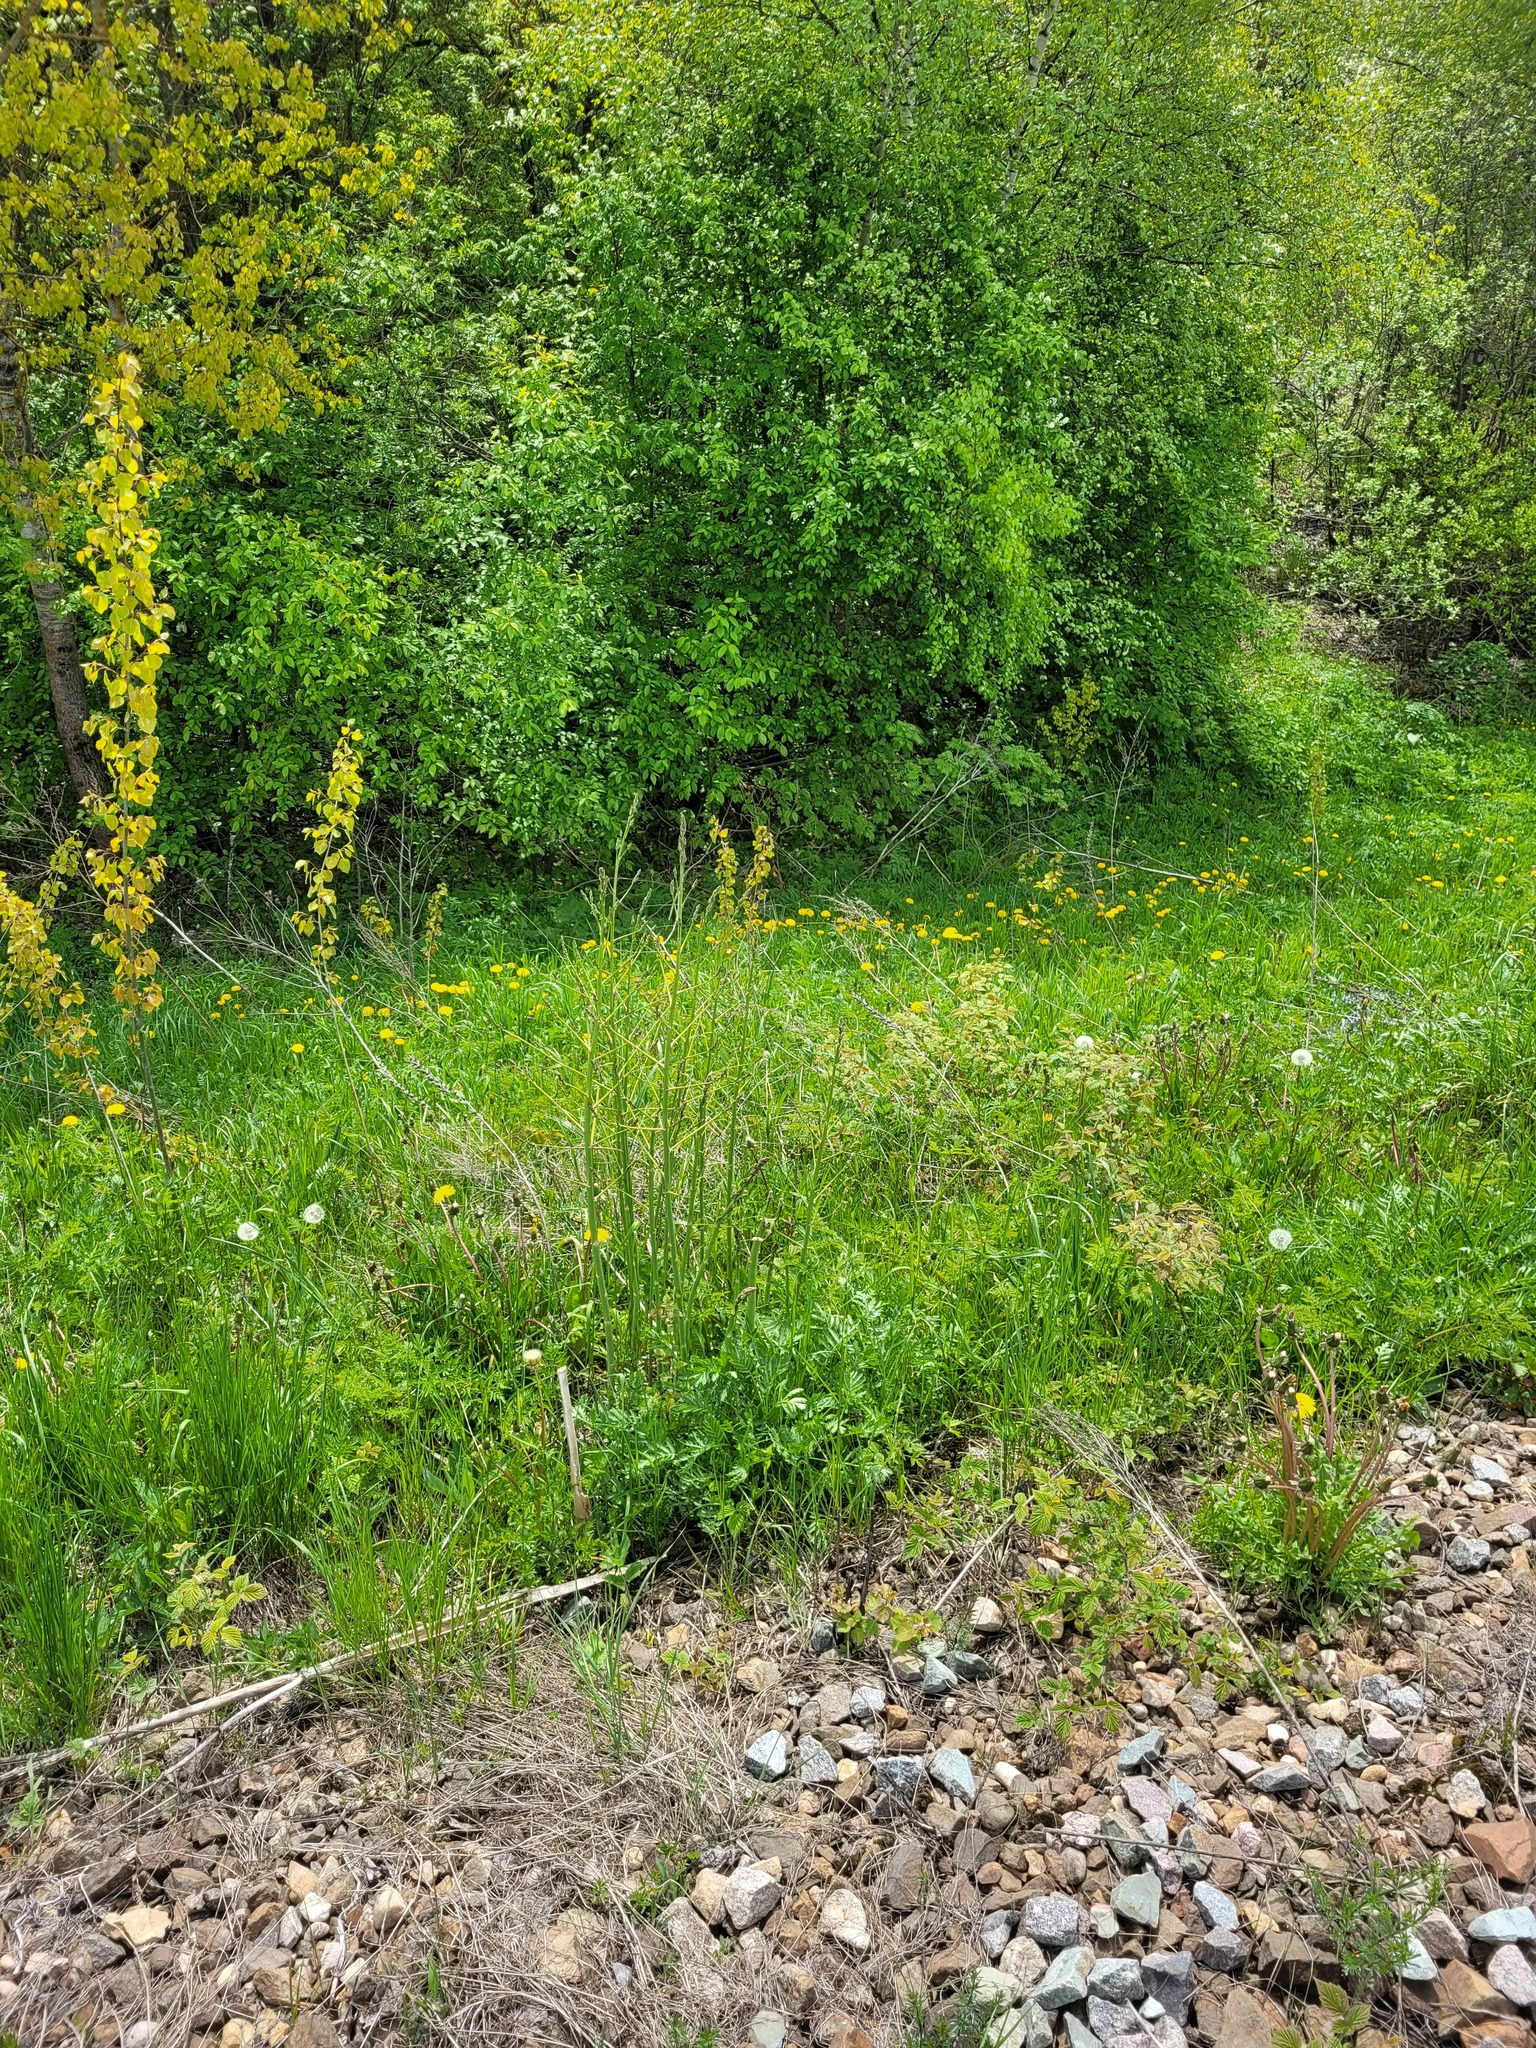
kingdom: Plantae
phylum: Tracheophyta
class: Liliopsida
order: Asparagales
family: Asparagaceae
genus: Asparagus
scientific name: Asparagus officinalis
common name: Garden asparagus
